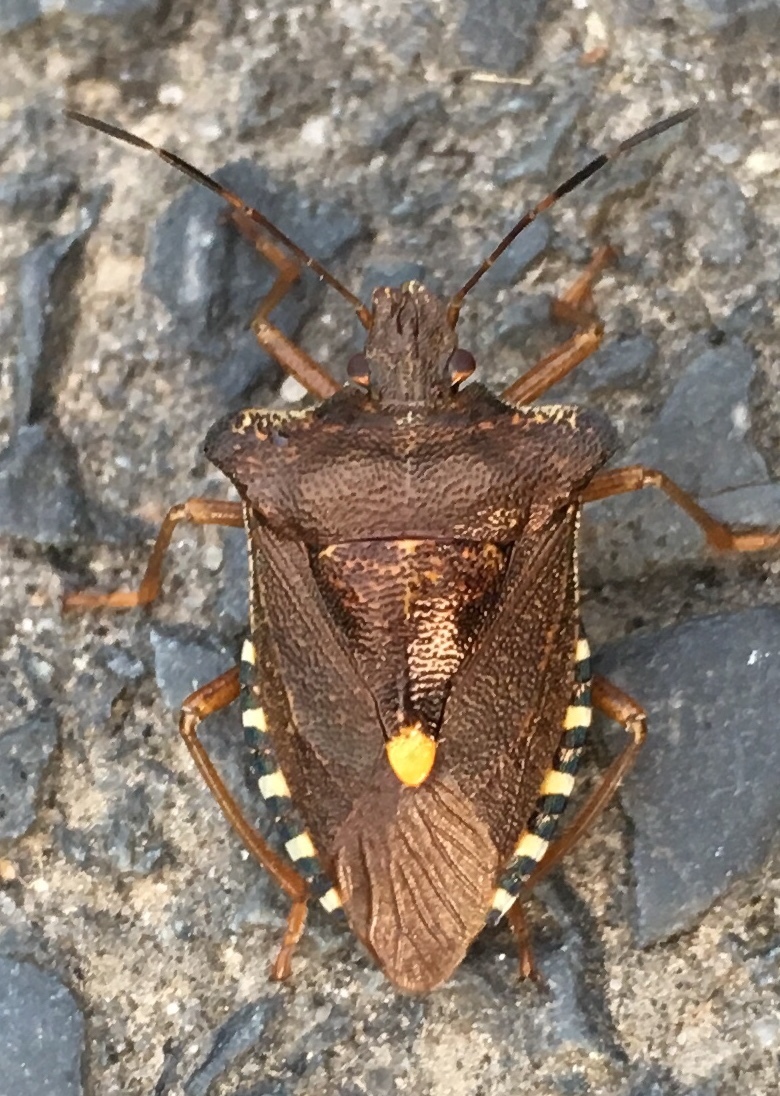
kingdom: Animalia
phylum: Arthropoda
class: Insecta
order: Hemiptera
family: Pentatomidae
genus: Pentatoma
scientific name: Pentatoma rufipes
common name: Forest bug
